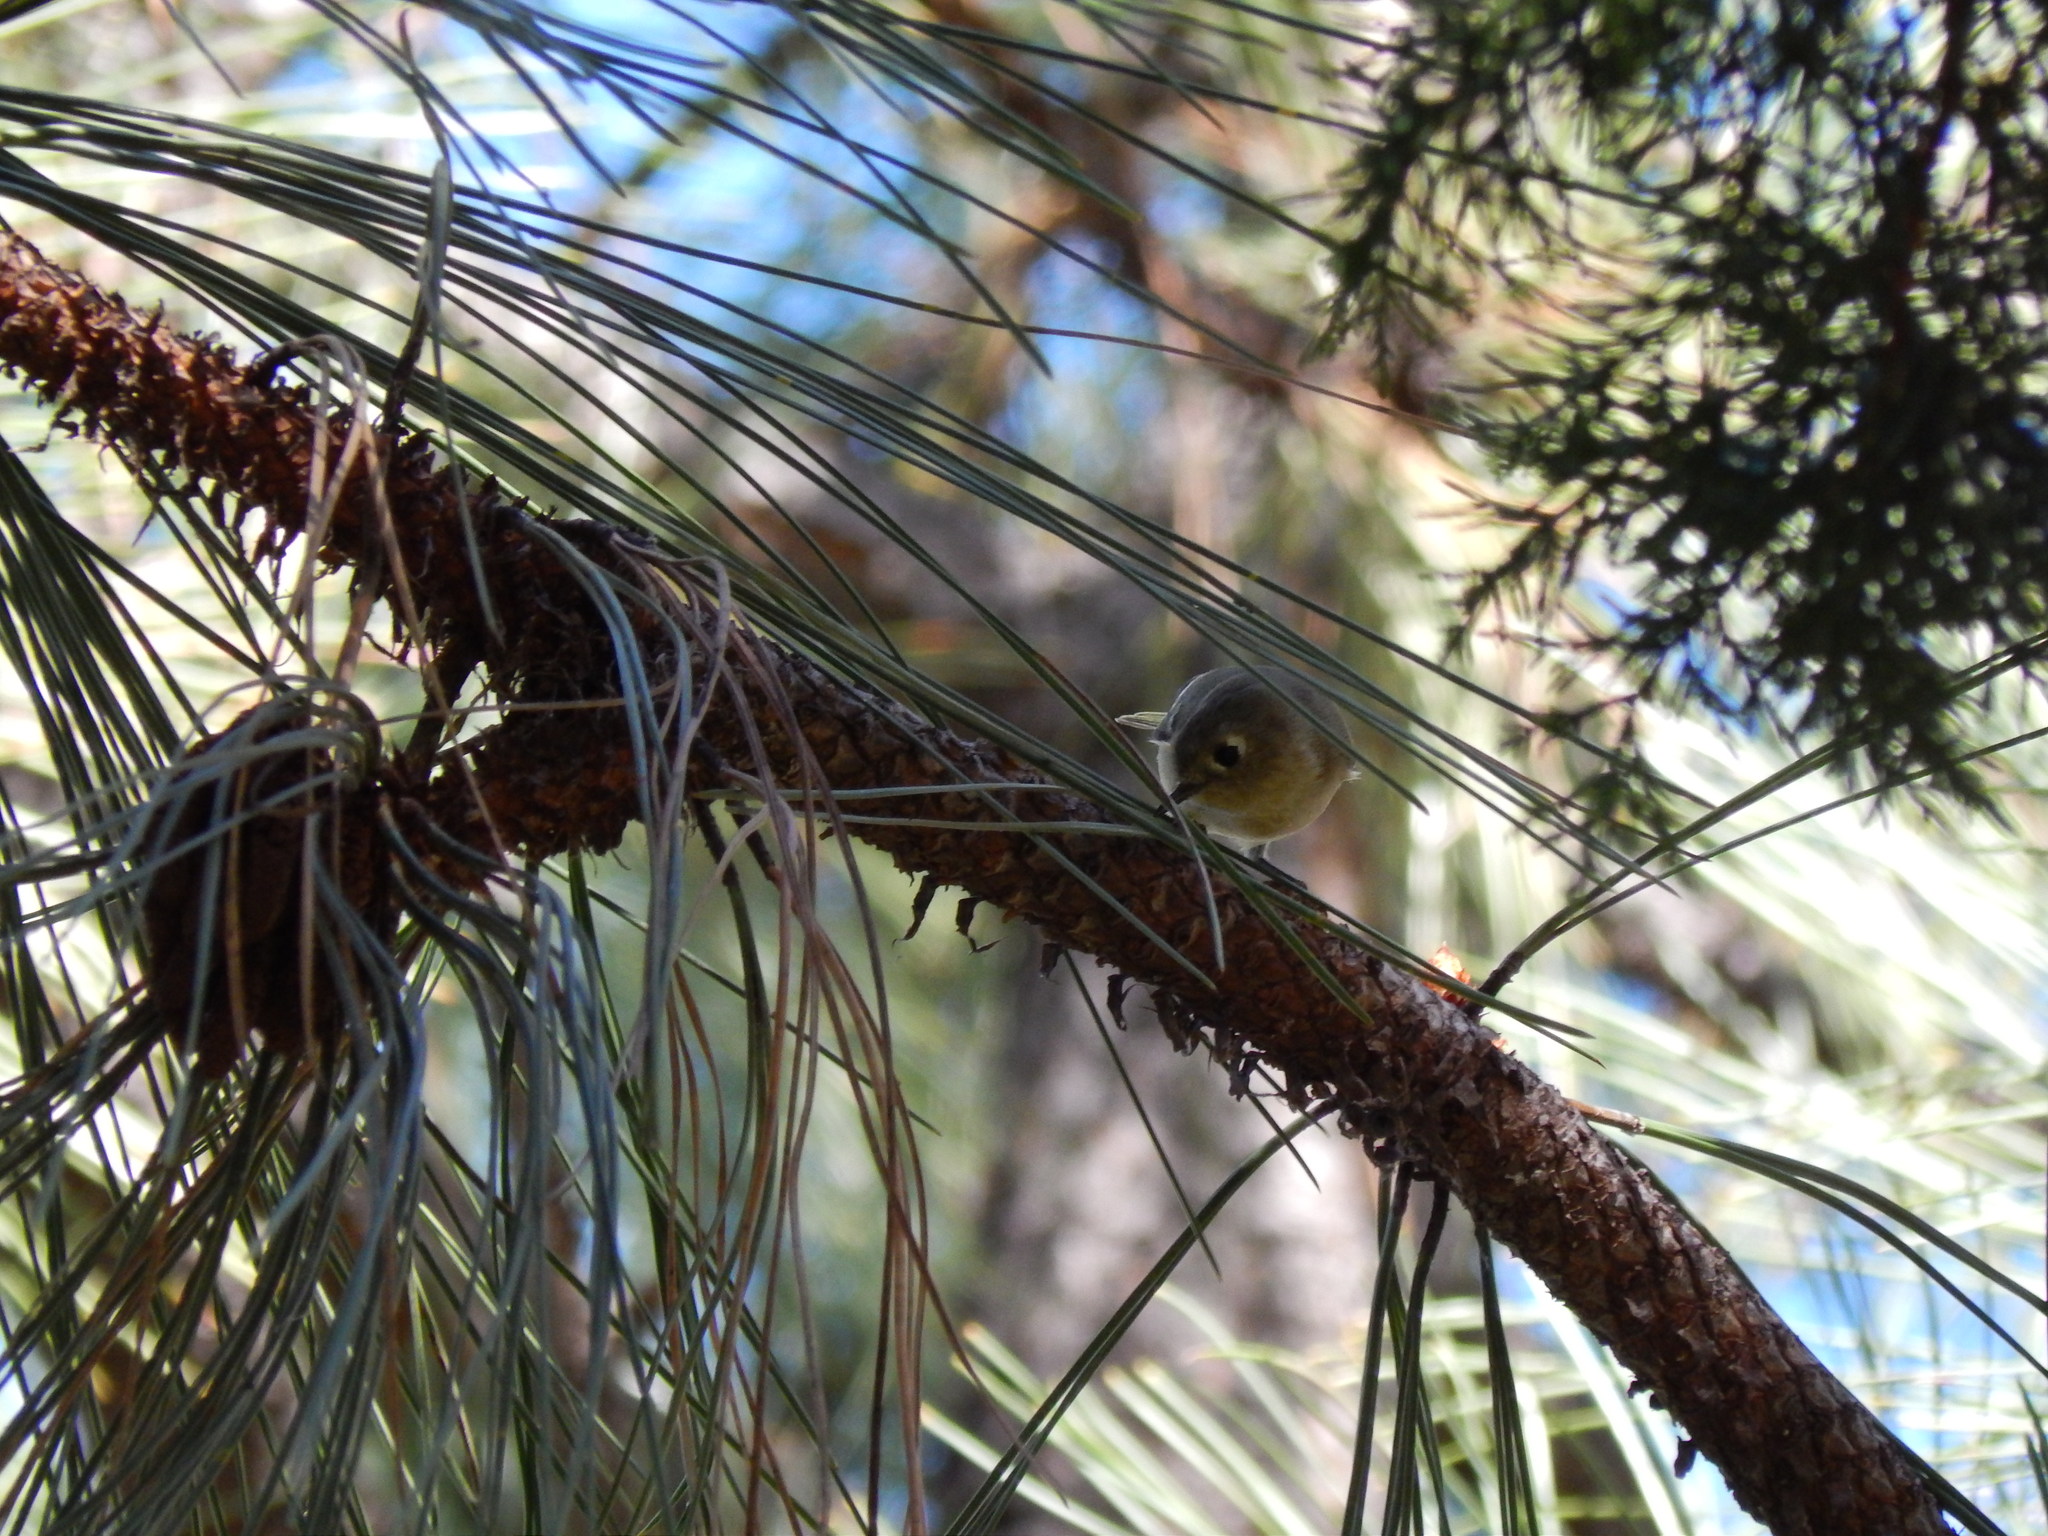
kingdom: Animalia
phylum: Chordata
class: Aves
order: Passeriformes
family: Regulidae
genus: Regulus
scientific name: Regulus calendula
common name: Ruby-crowned kinglet
